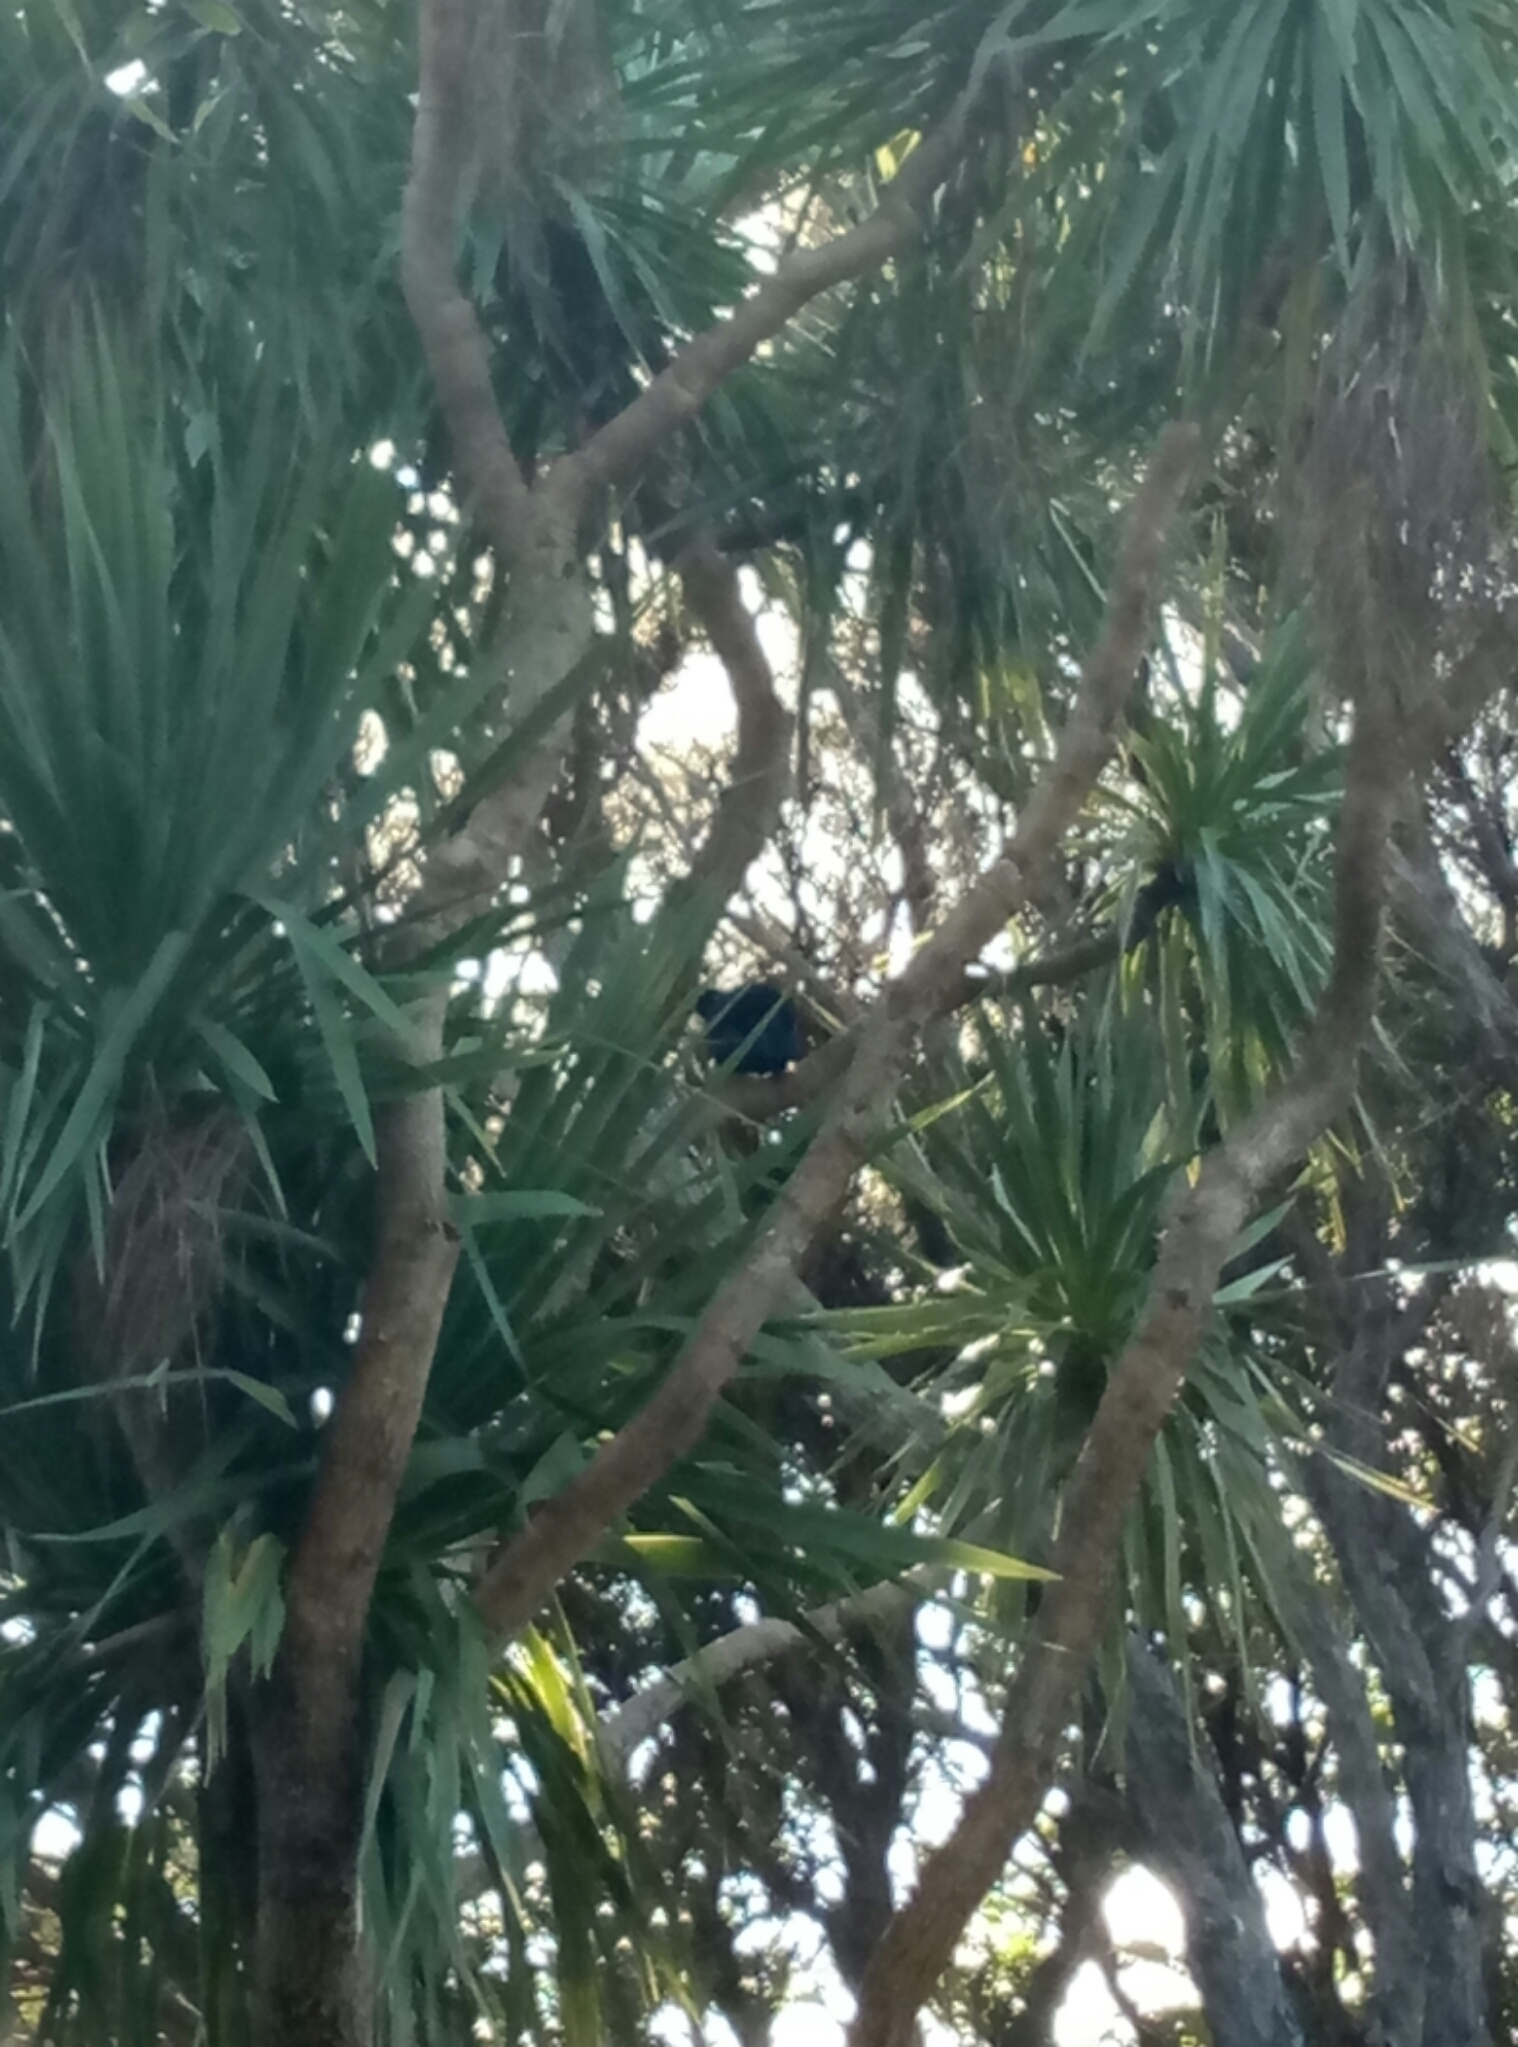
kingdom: Animalia
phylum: Chordata
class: Aves
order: Passeriformes
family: Meliphagidae
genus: Prosthemadera
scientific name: Prosthemadera novaeseelandiae
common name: Tui
